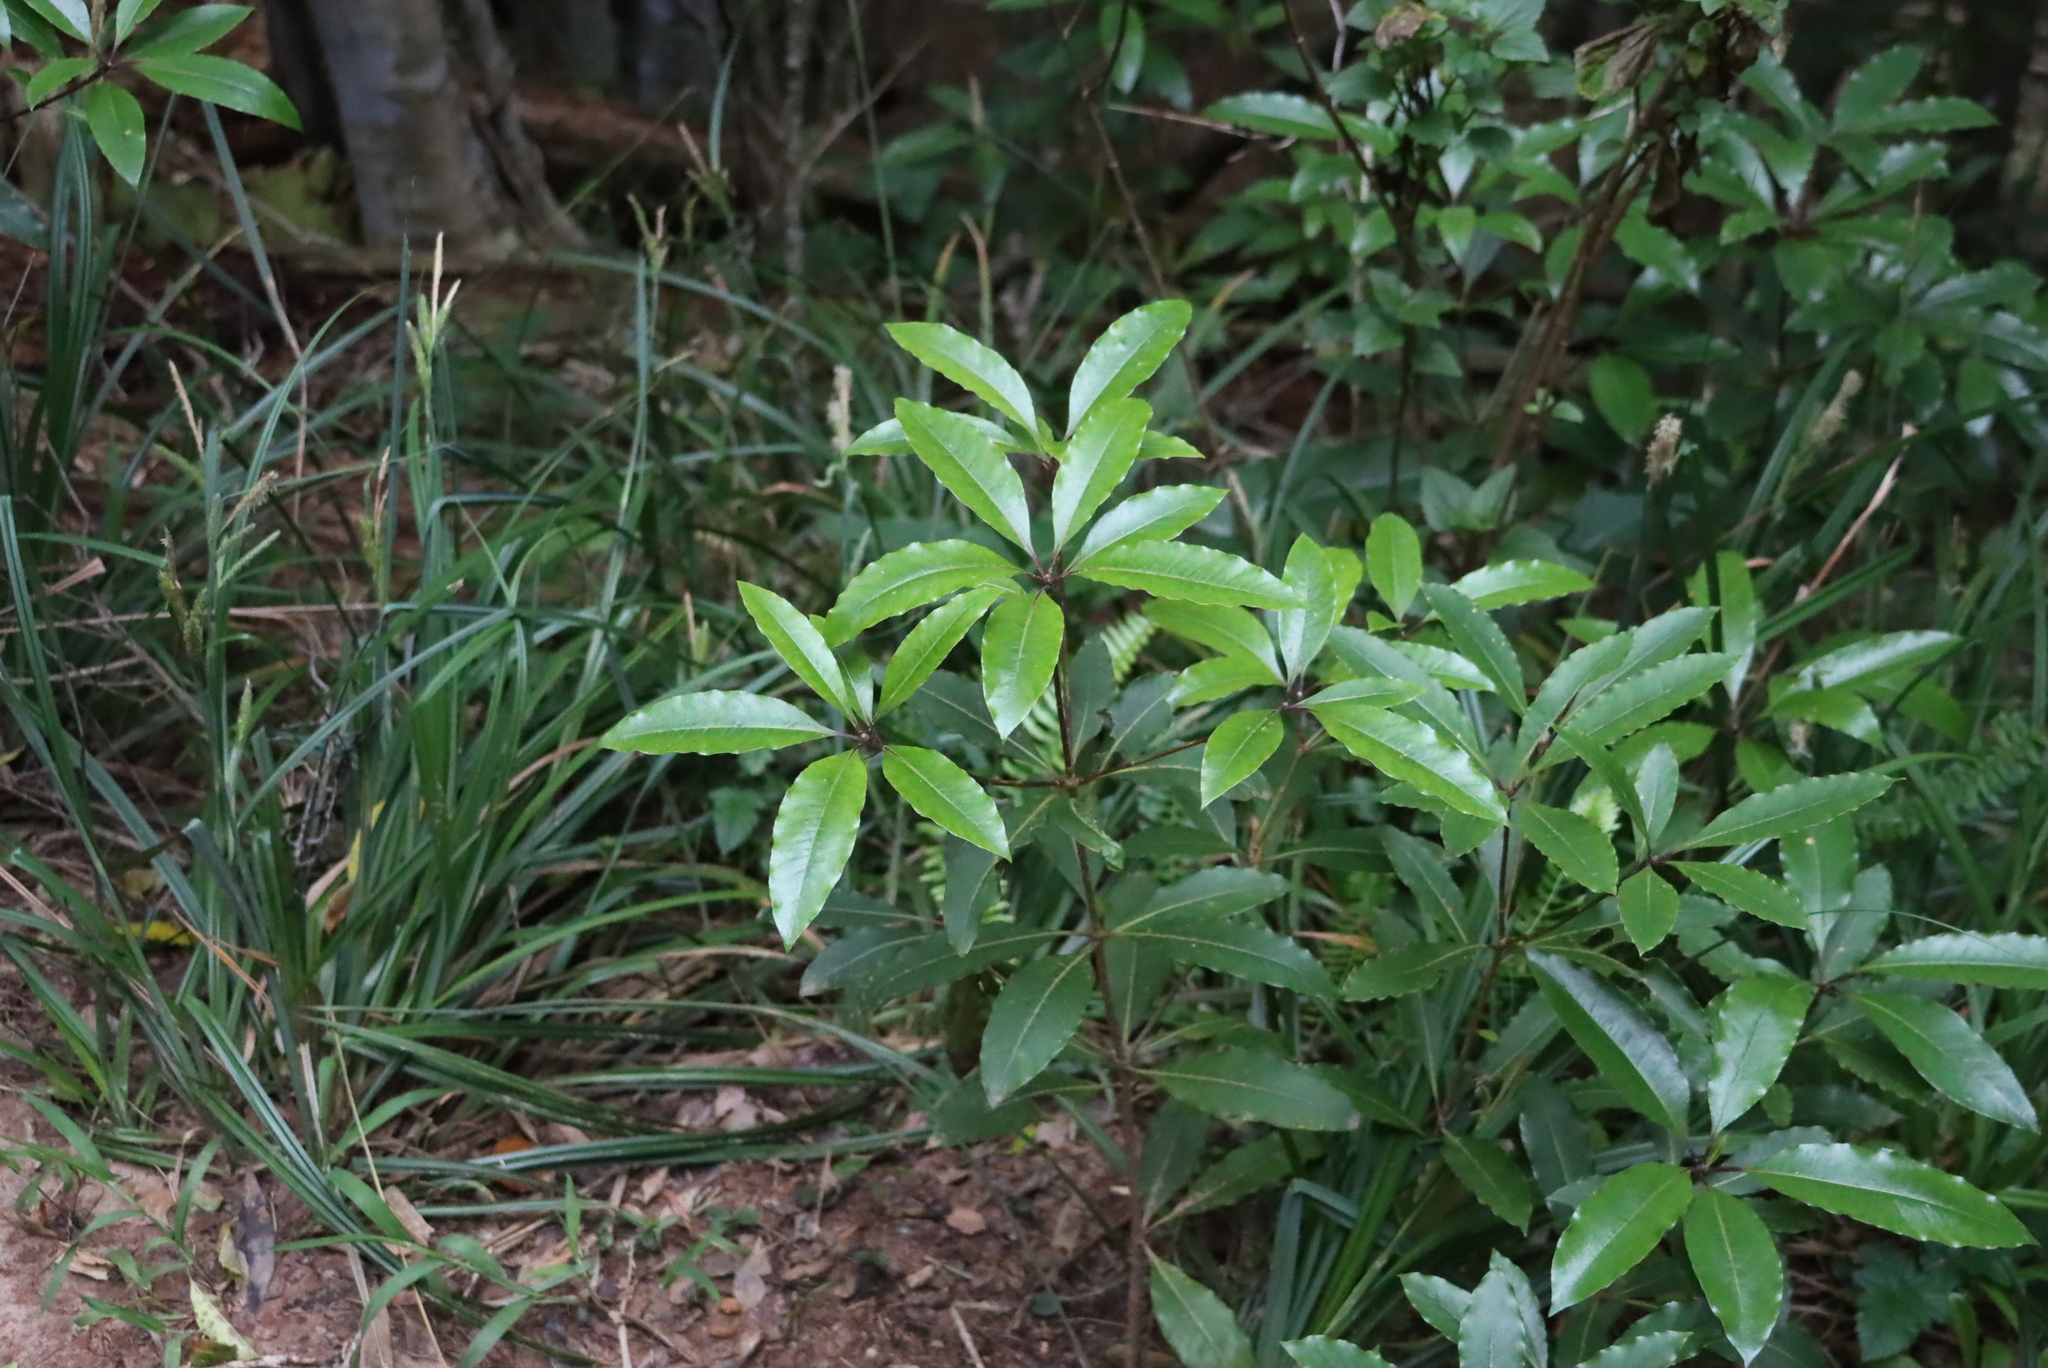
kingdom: Plantae
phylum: Tracheophyta
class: Magnoliopsida
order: Apiales
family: Pittosporaceae
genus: Pittosporum
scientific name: Pittosporum undulatum
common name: Australian cheesewood
